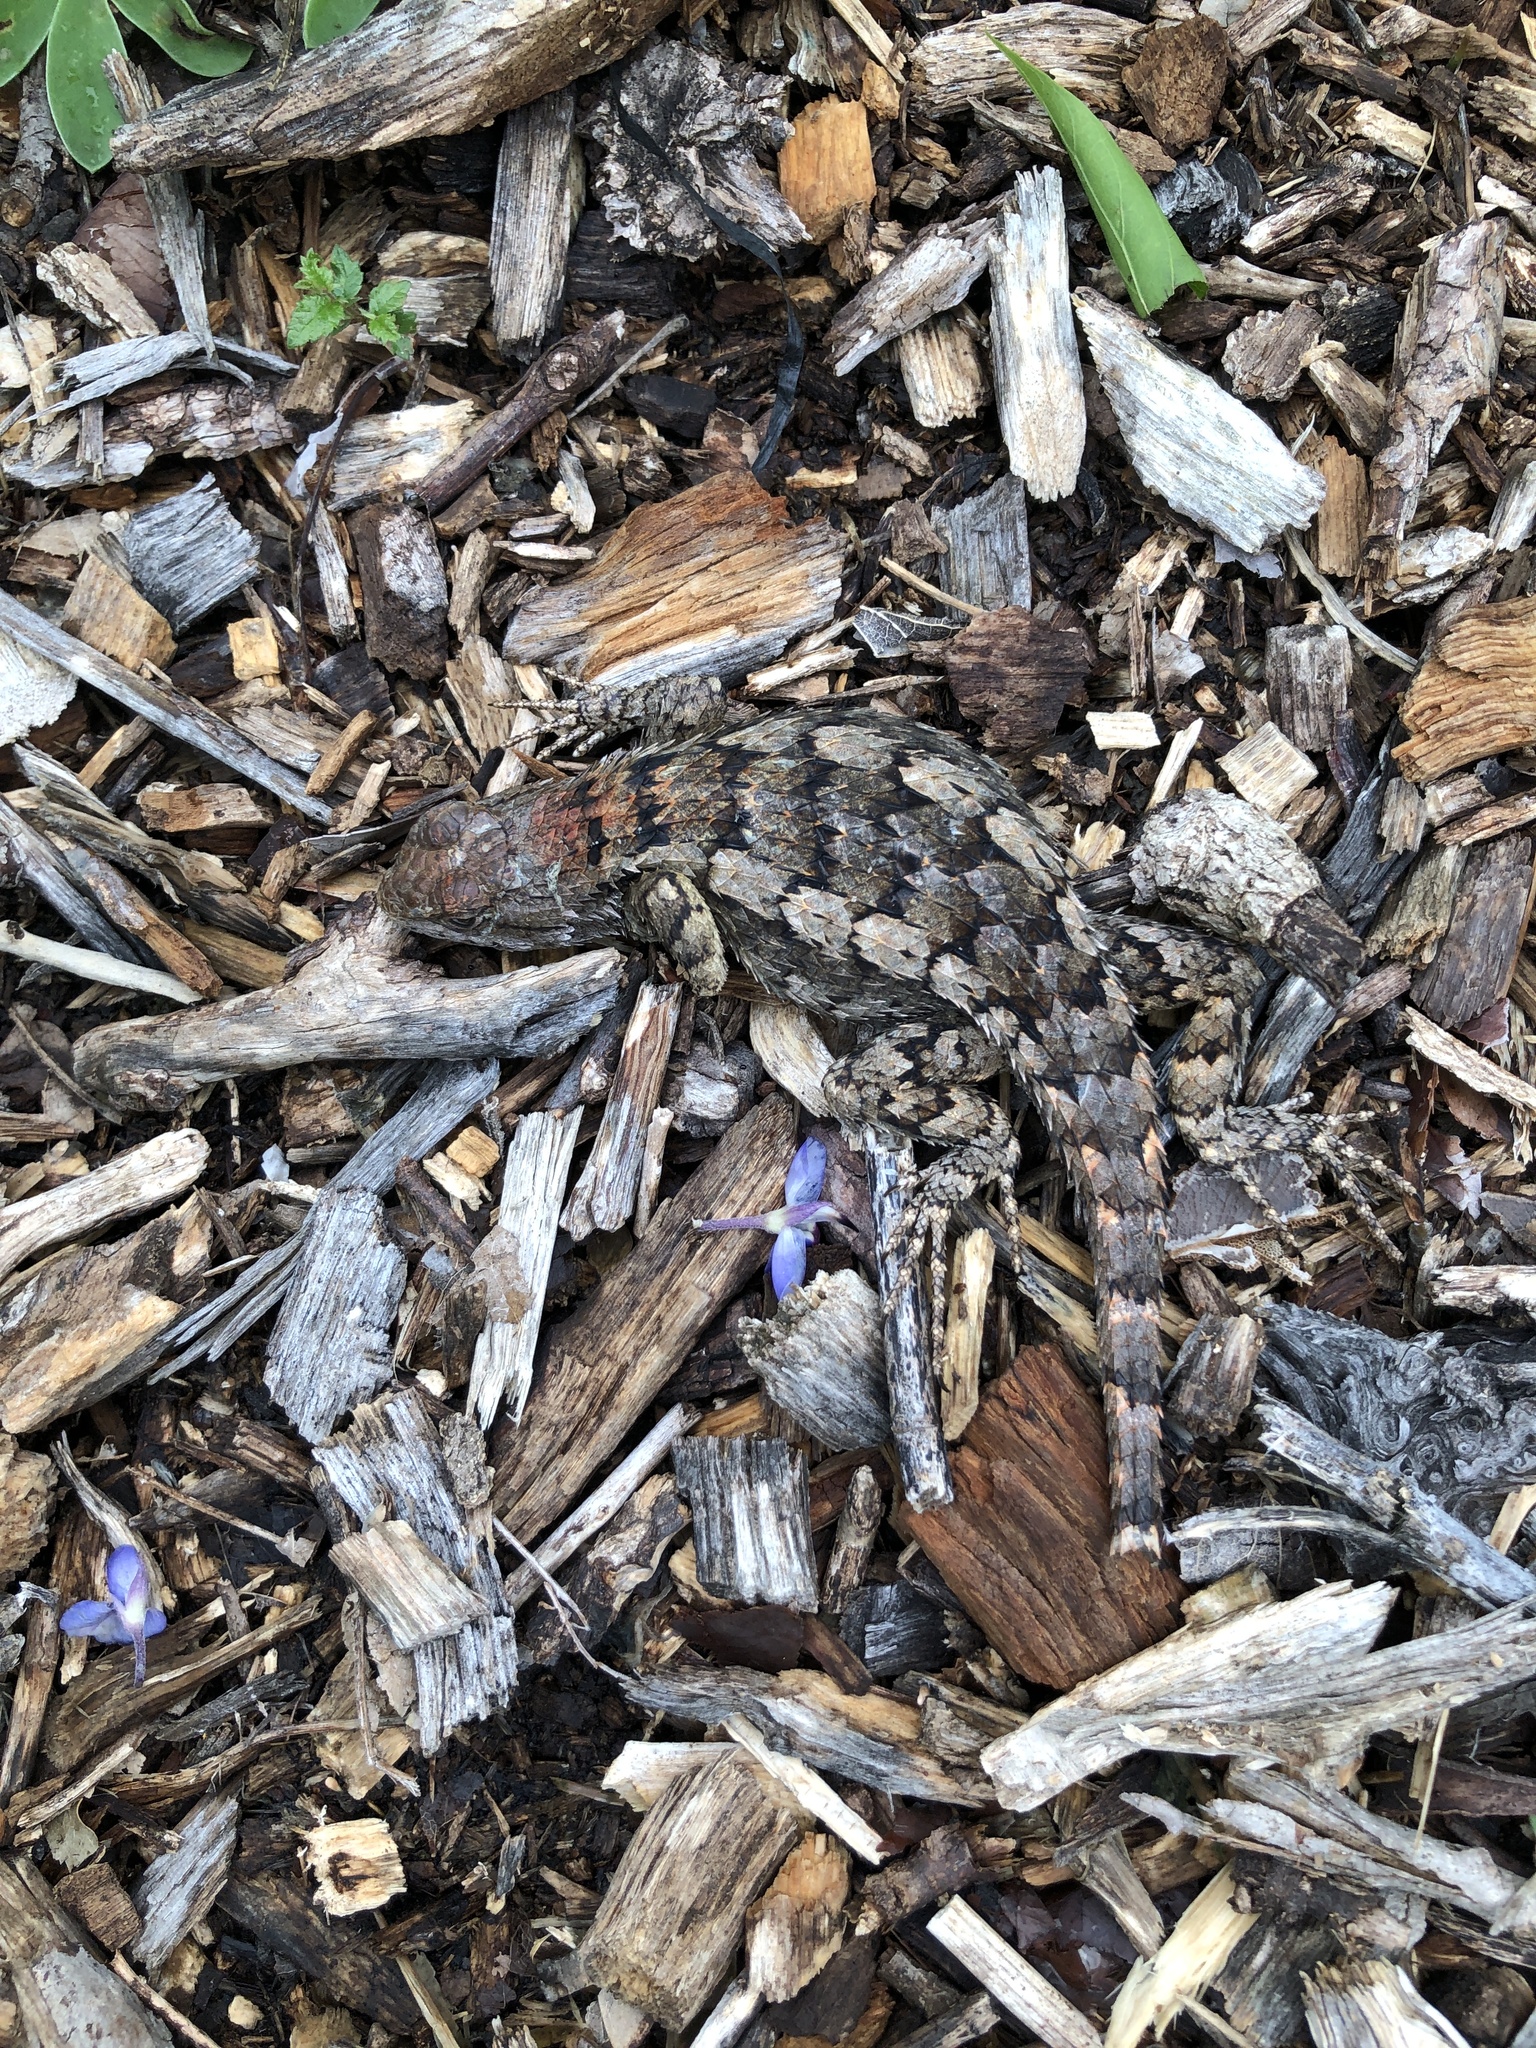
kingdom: Animalia
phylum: Chordata
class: Squamata
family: Phrynosomatidae
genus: Sceloporus
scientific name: Sceloporus olivaceus
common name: Texas spiny lizard
